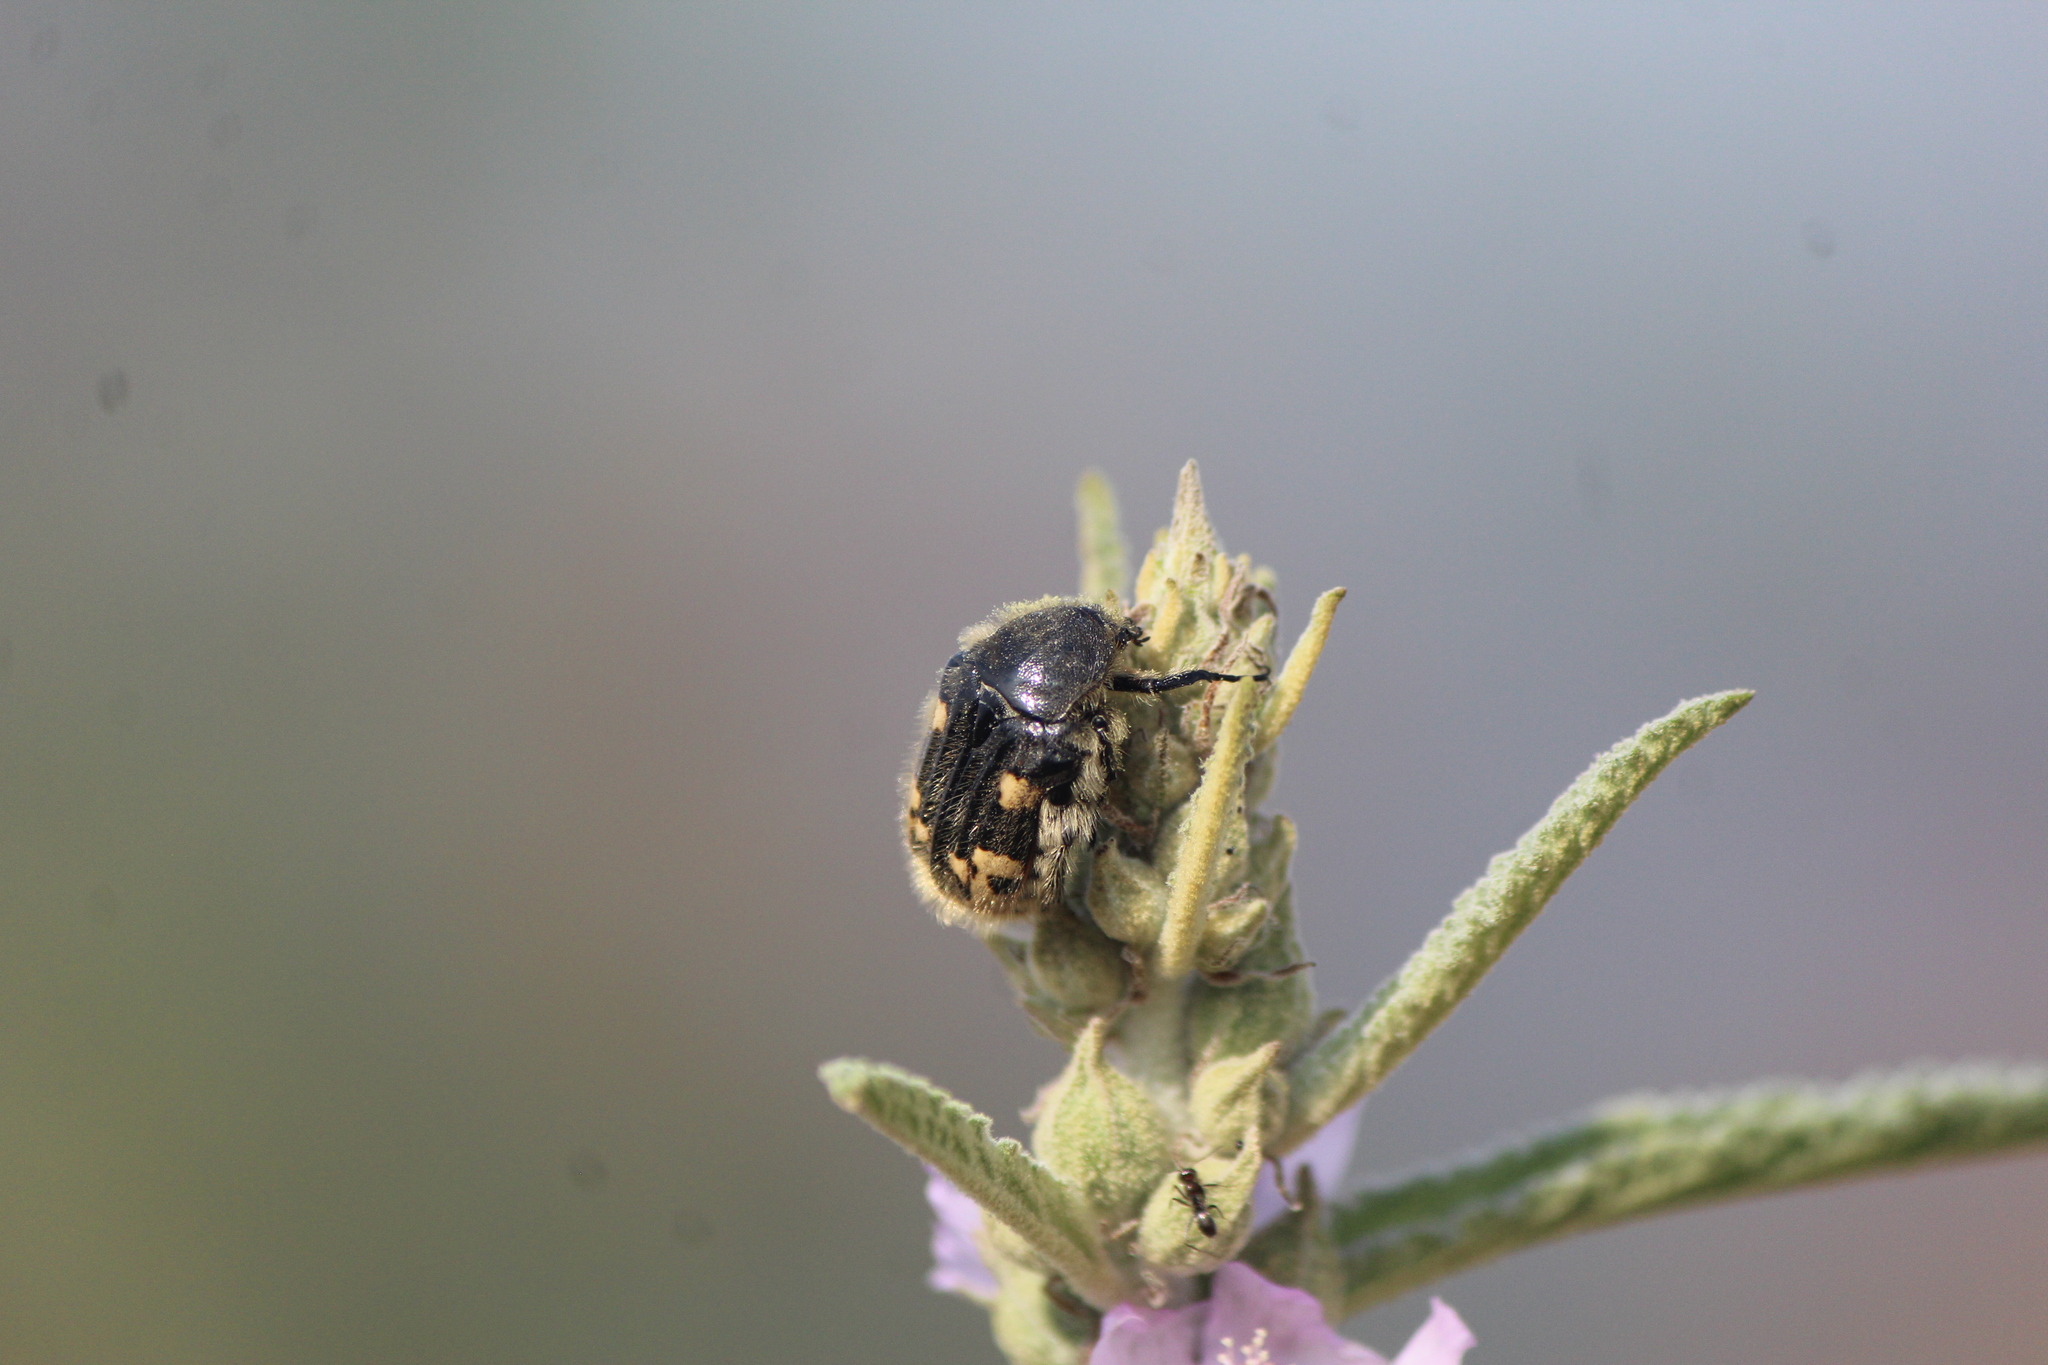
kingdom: Animalia
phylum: Arthropoda
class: Insecta
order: Coleoptera
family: Scarabaeidae
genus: Euphoria
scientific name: Euphoria basalis
